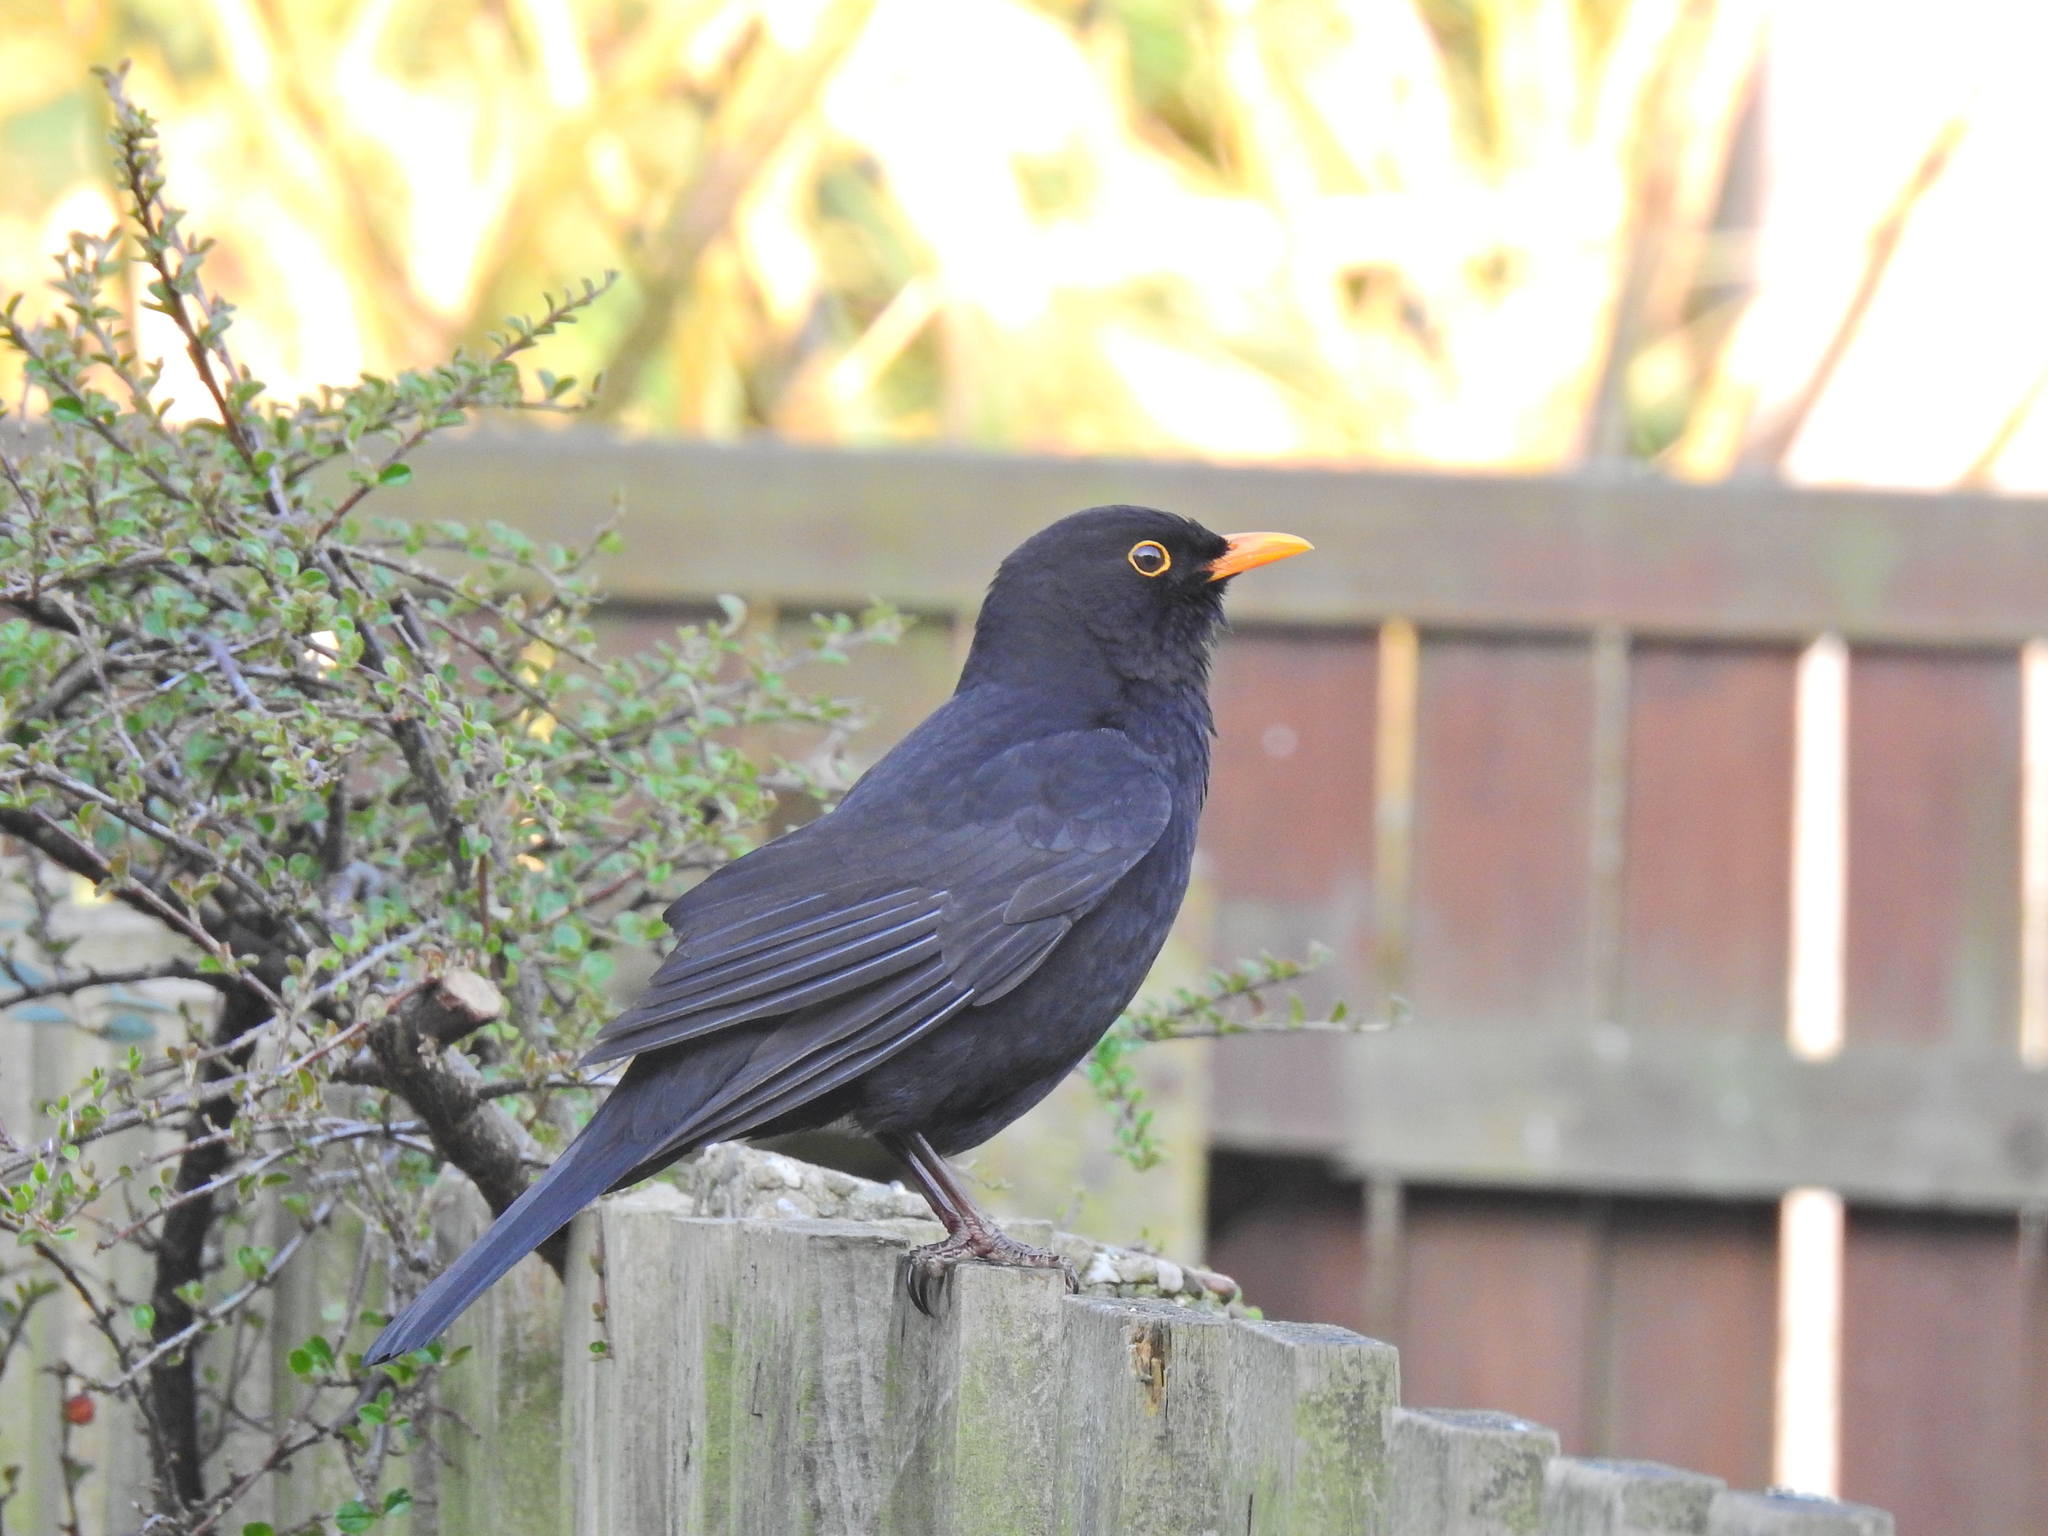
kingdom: Animalia
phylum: Chordata
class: Aves
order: Passeriformes
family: Turdidae
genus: Turdus
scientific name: Turdus merula
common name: Common blackbird
